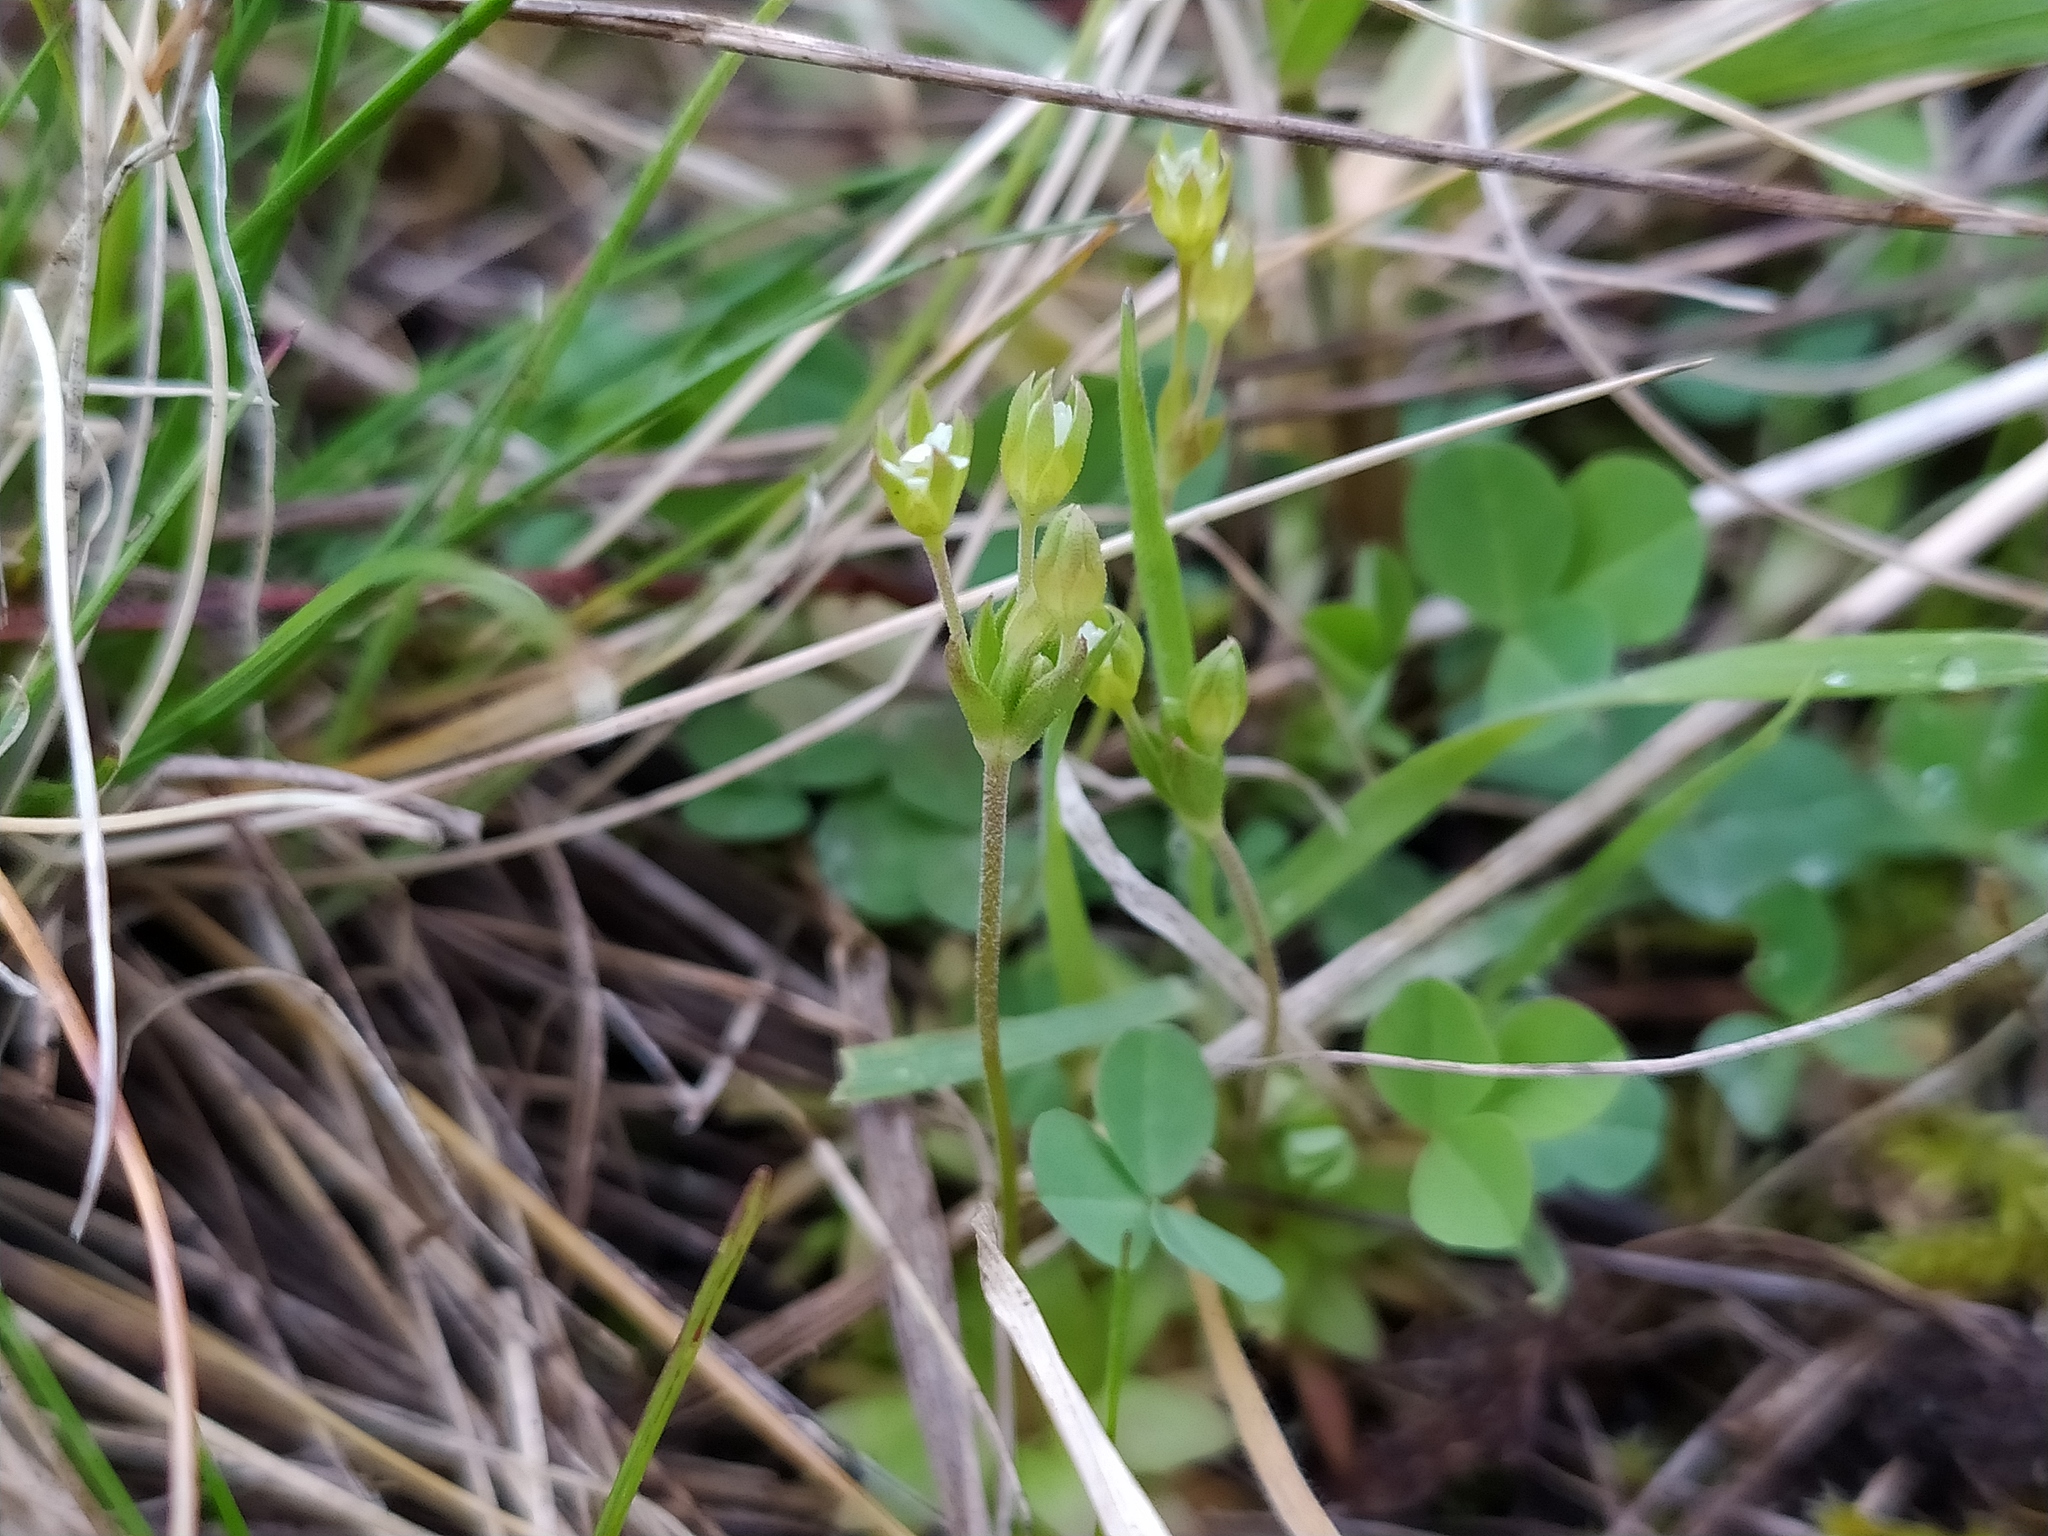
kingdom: Plantae
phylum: Tracheophyta
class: Magnoliopsida
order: Ericales
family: Primulaceae
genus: Androsace
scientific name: Androsace elongata
